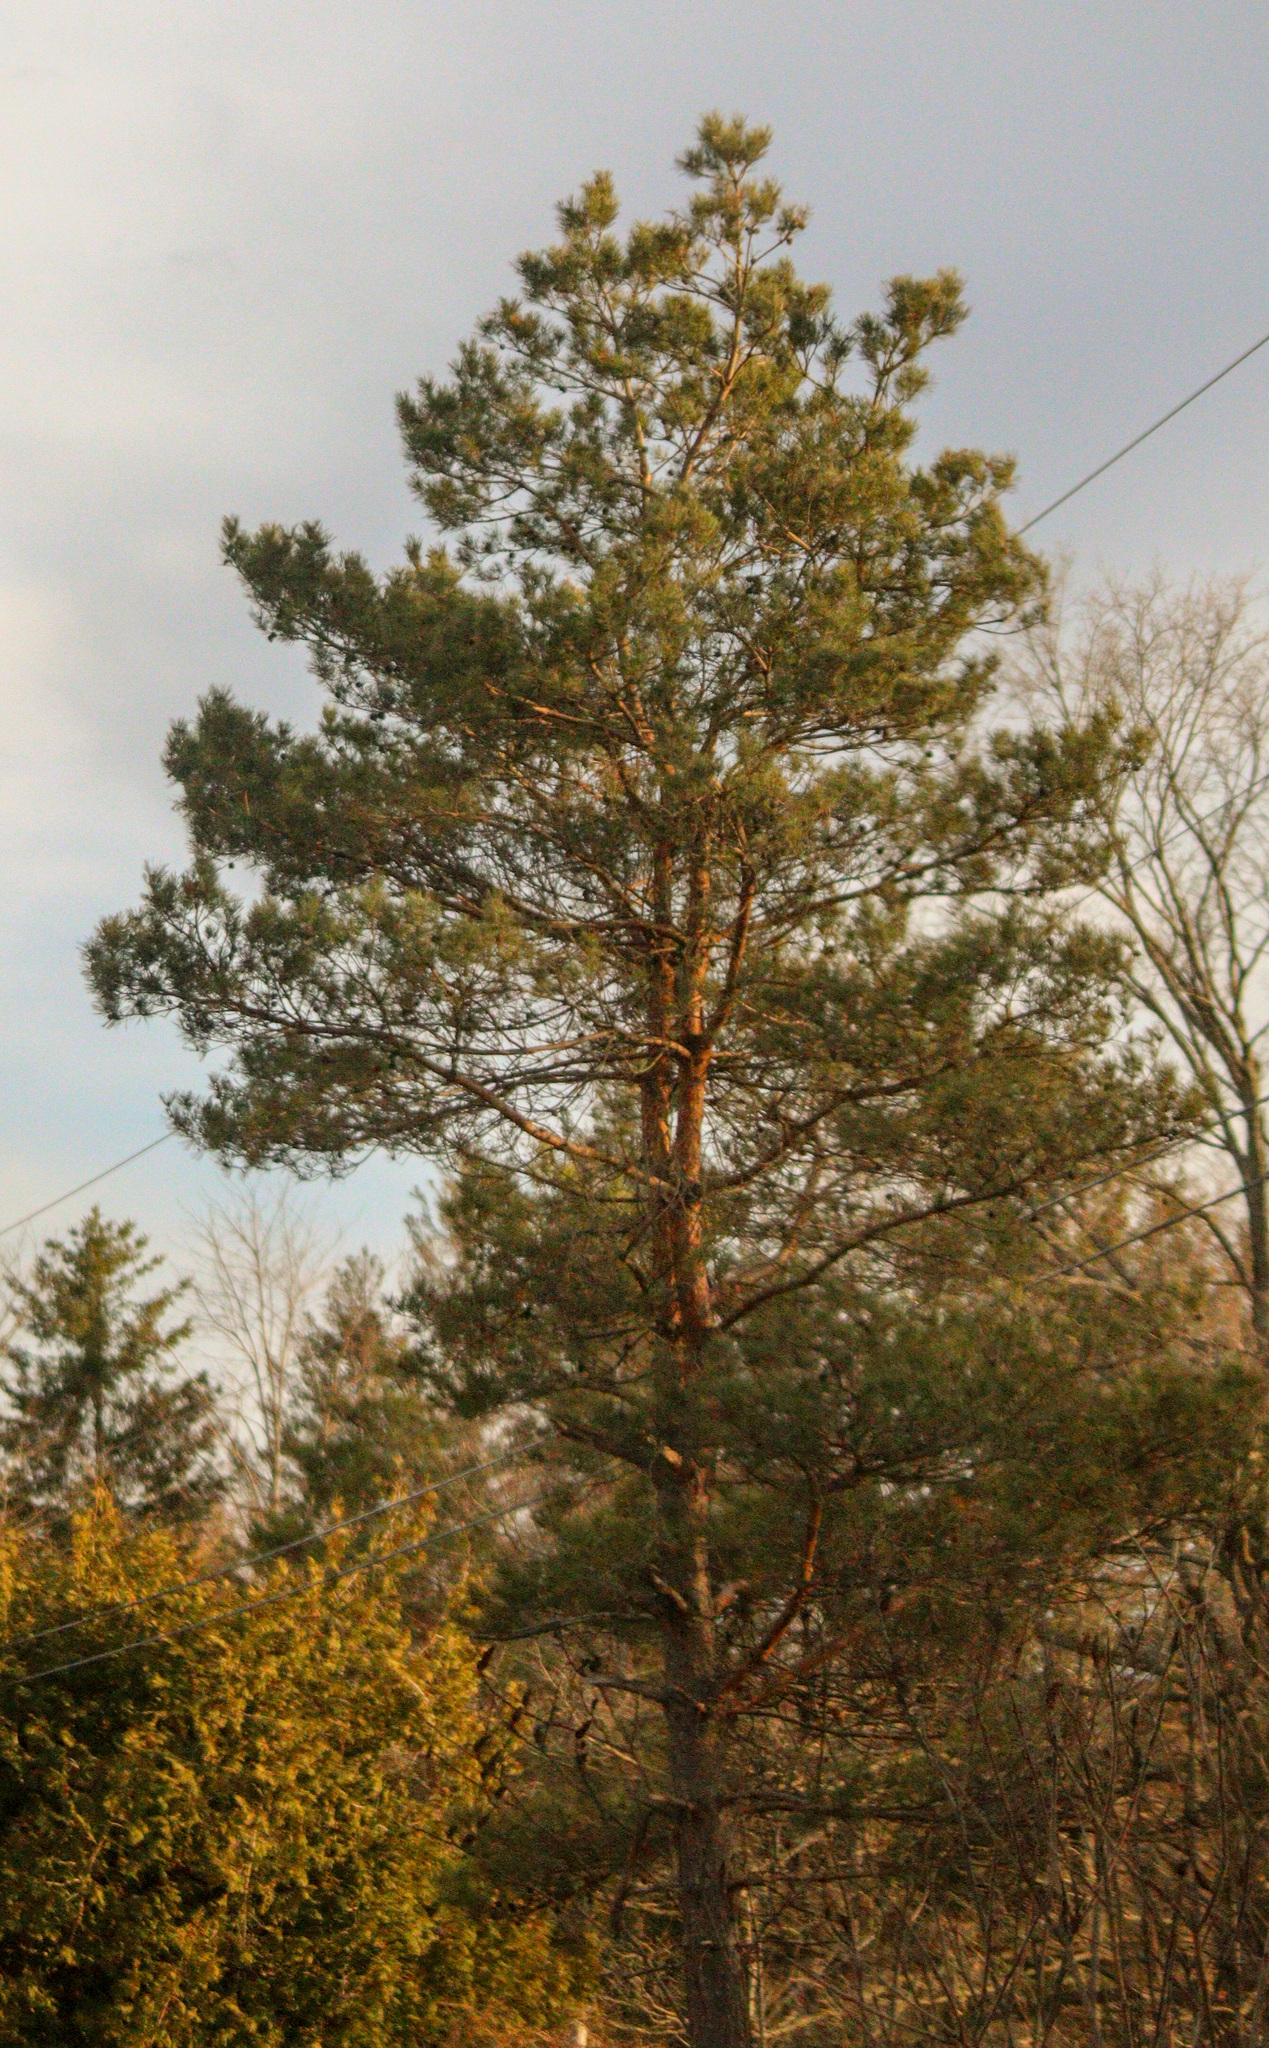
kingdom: Plantae
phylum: Tracheophyta
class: Pinopsida
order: Pinales
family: Pinaceae
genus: Pinus
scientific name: Pinus sylvestris
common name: Scots pine
